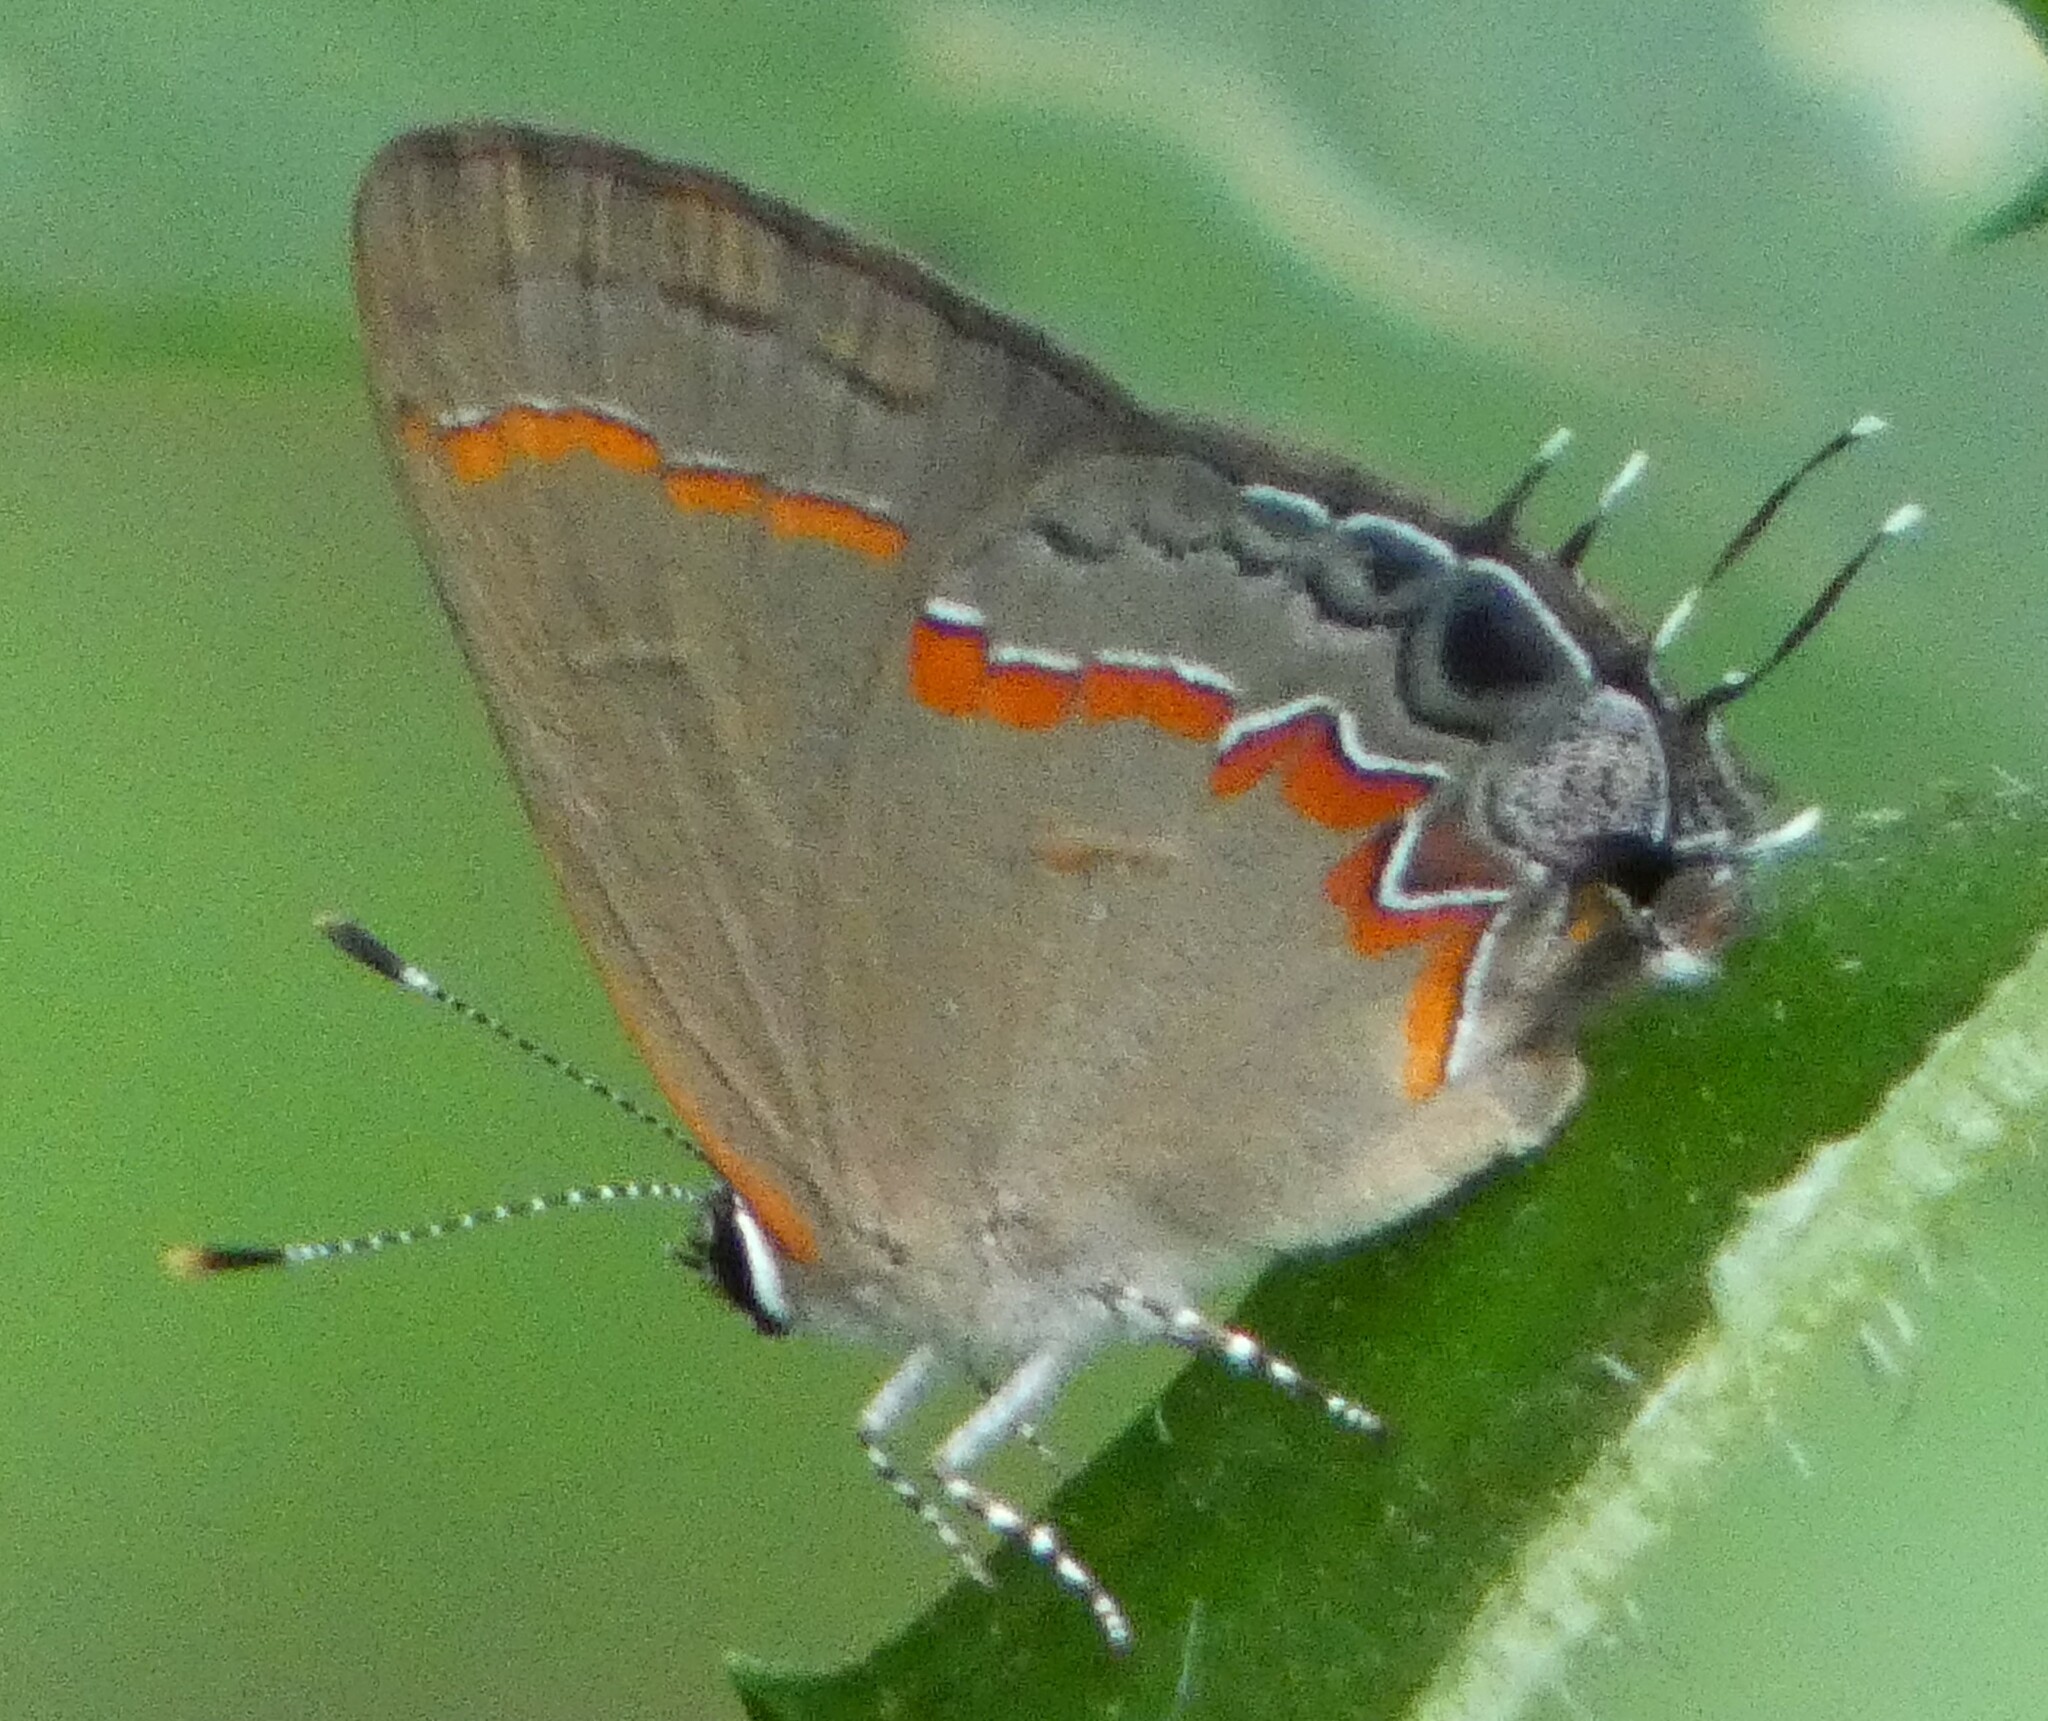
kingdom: Animalia
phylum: Arthropoda
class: Insecta
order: Lepidoptera
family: Lycaenidae
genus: Calycopis
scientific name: Calycopis cecrops
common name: Red-banded hairstreak
